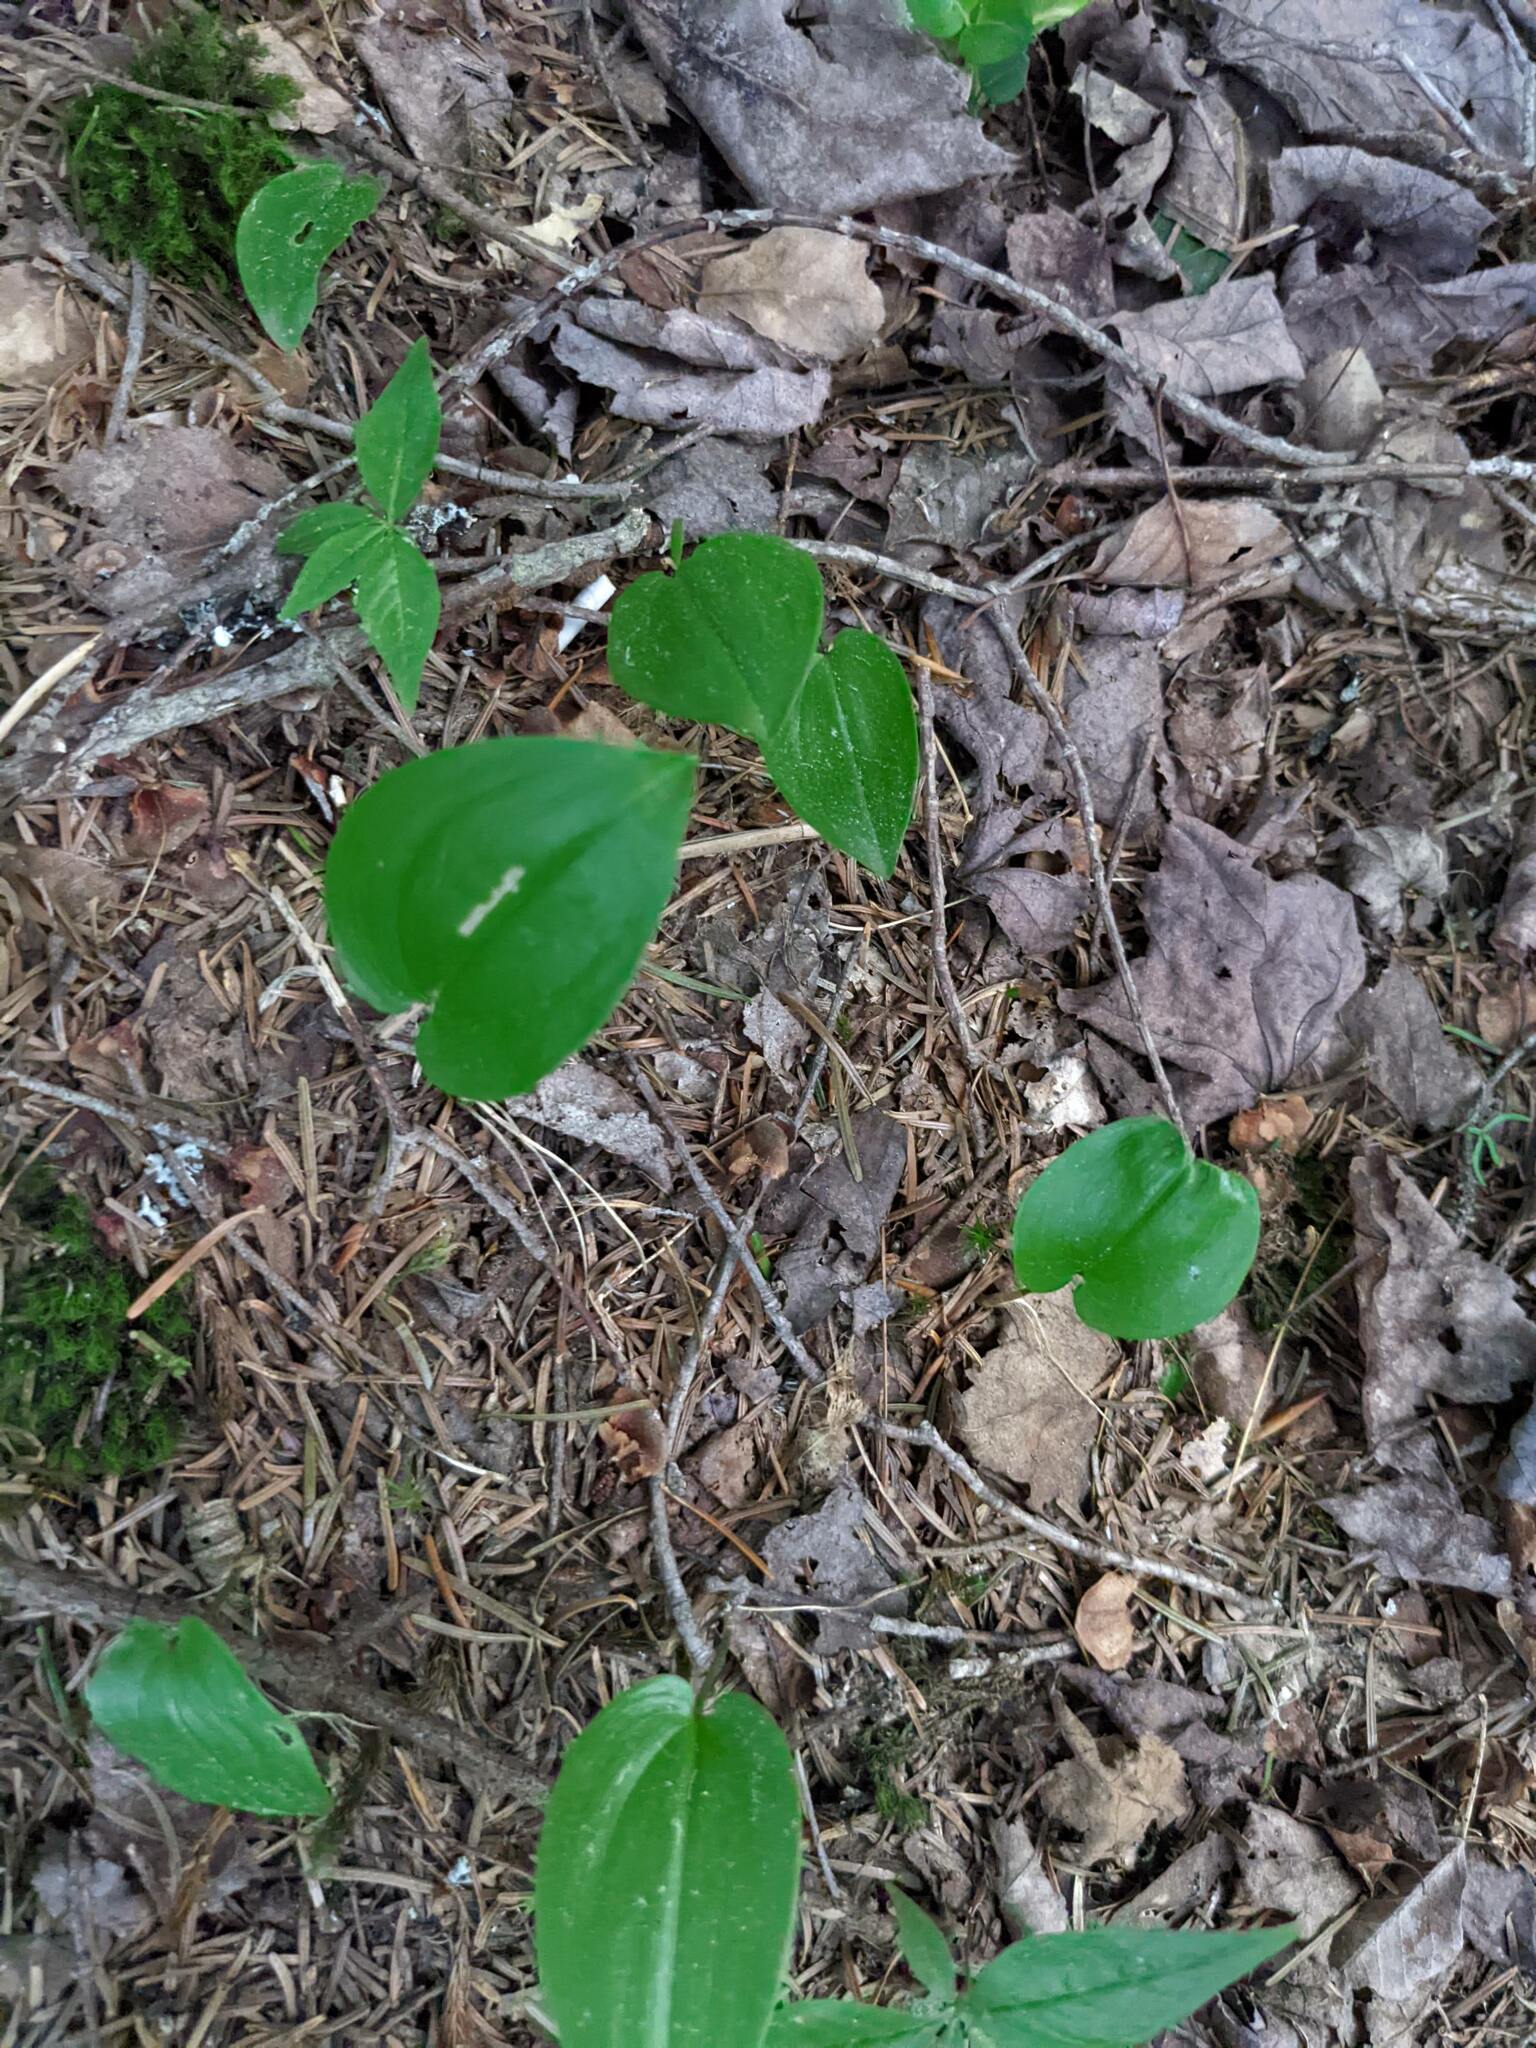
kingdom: Plantae
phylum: Tracheophyta
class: Liliopsida
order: Asparagales
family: Asparagaceae
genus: Maianthemum
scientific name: Maianthemum canadense
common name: False lily-of-the-valley
